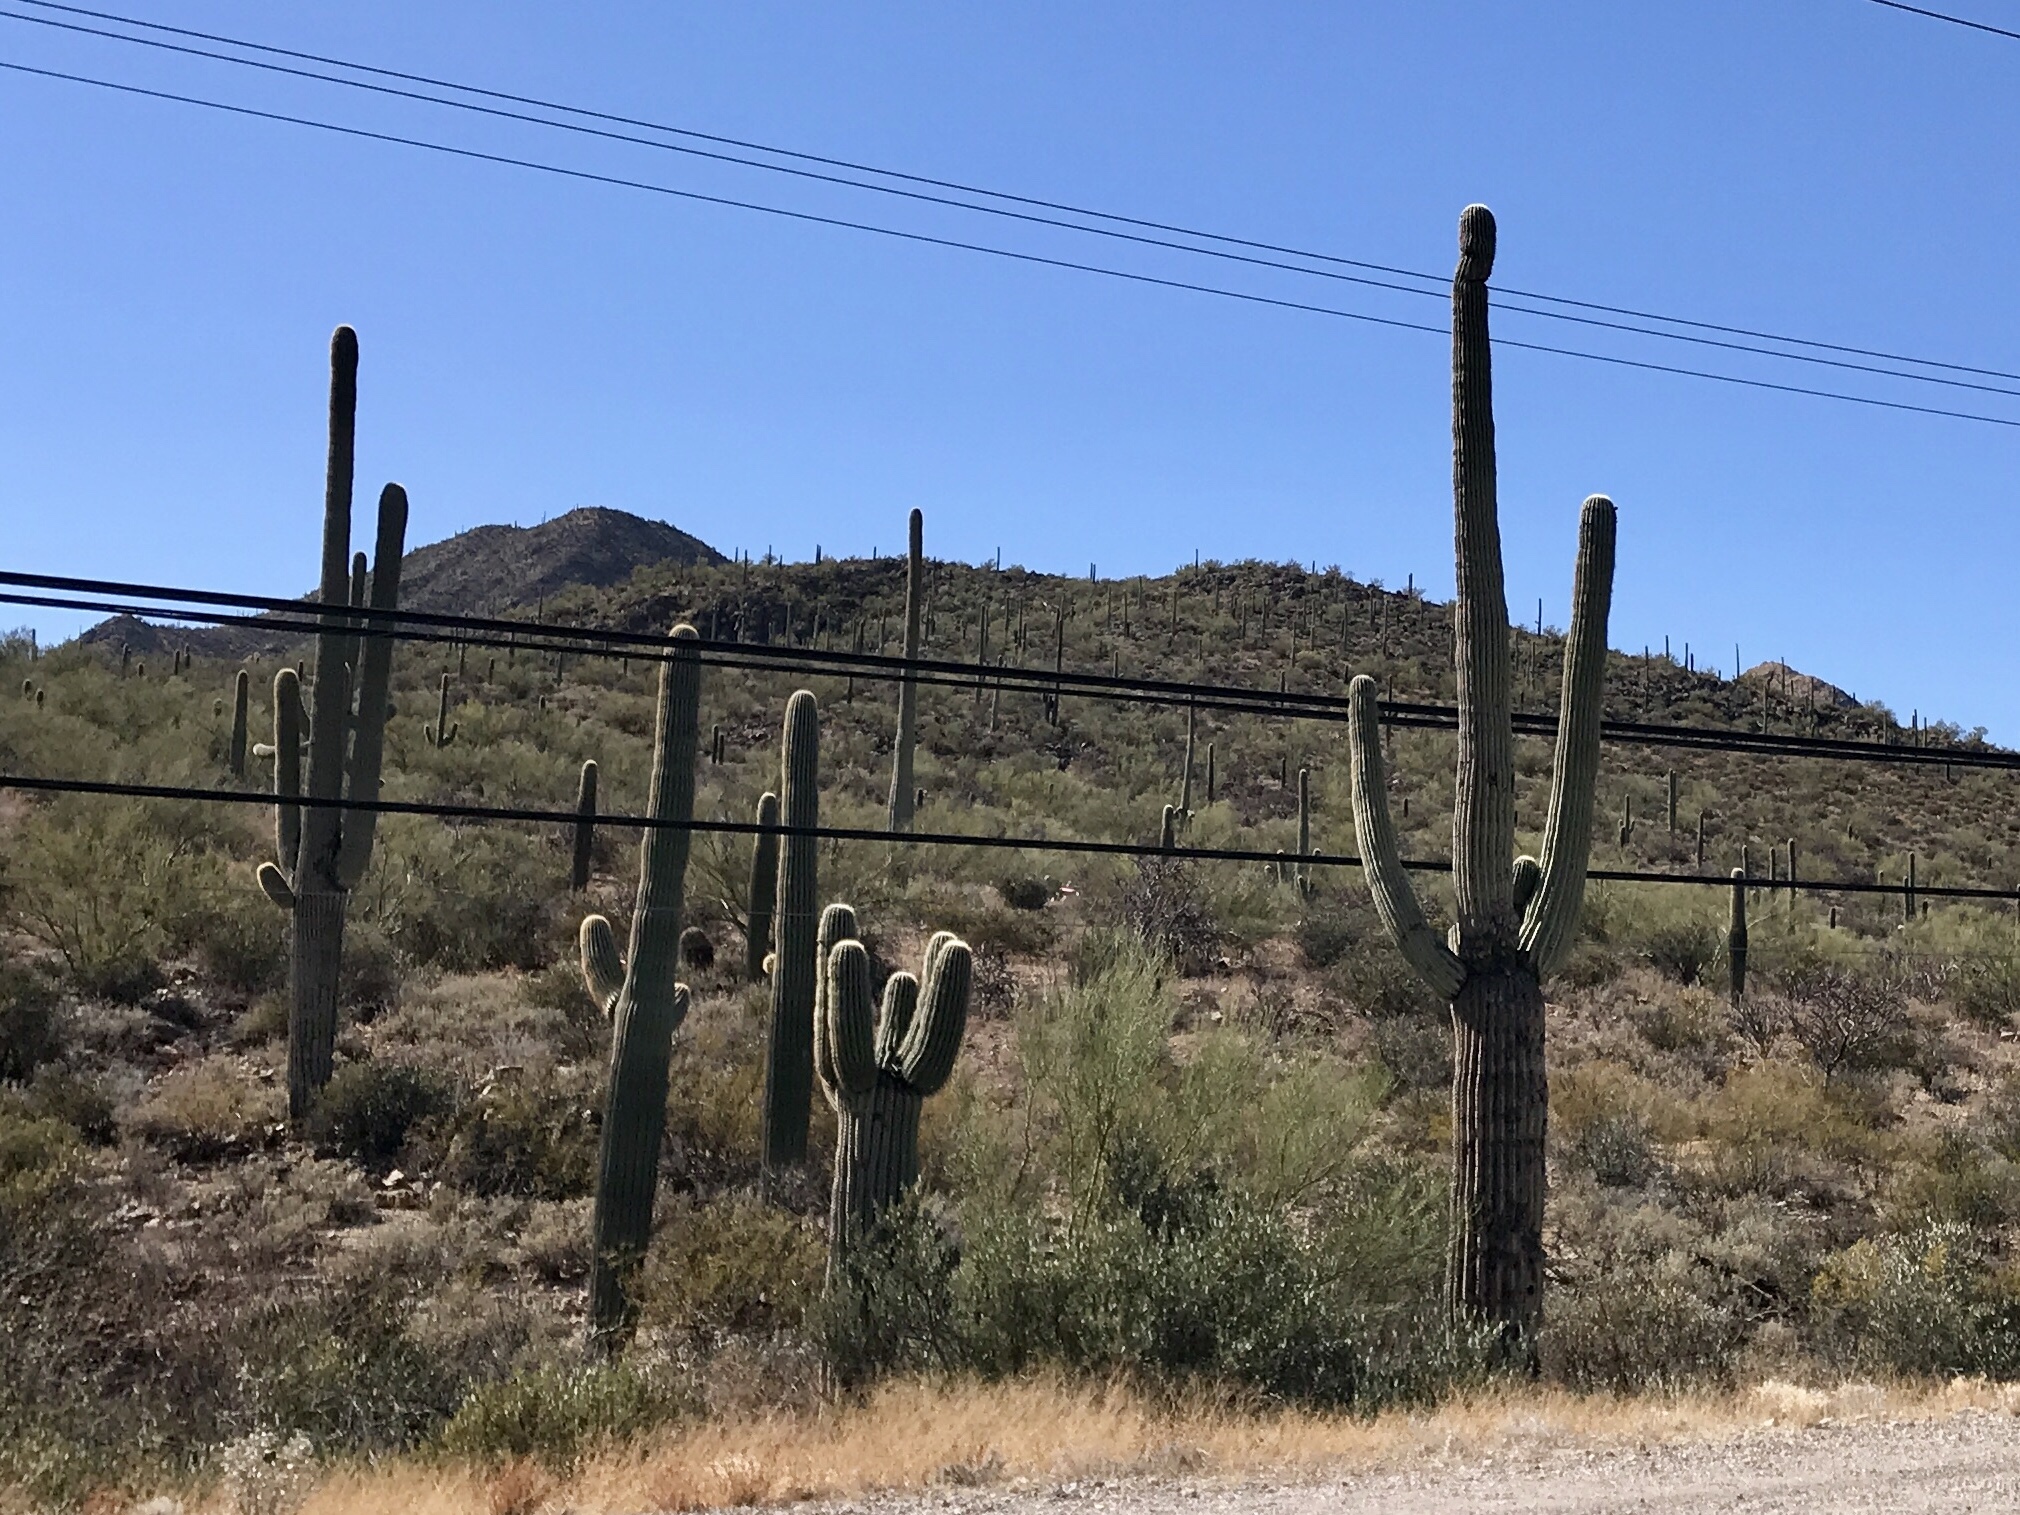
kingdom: Plantae
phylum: Tracheophyta
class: Magnoliopsida
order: Caryophyllales
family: Cactaceae
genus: Carnegiea
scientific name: Carnegiea gigantea
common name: Saguaro
